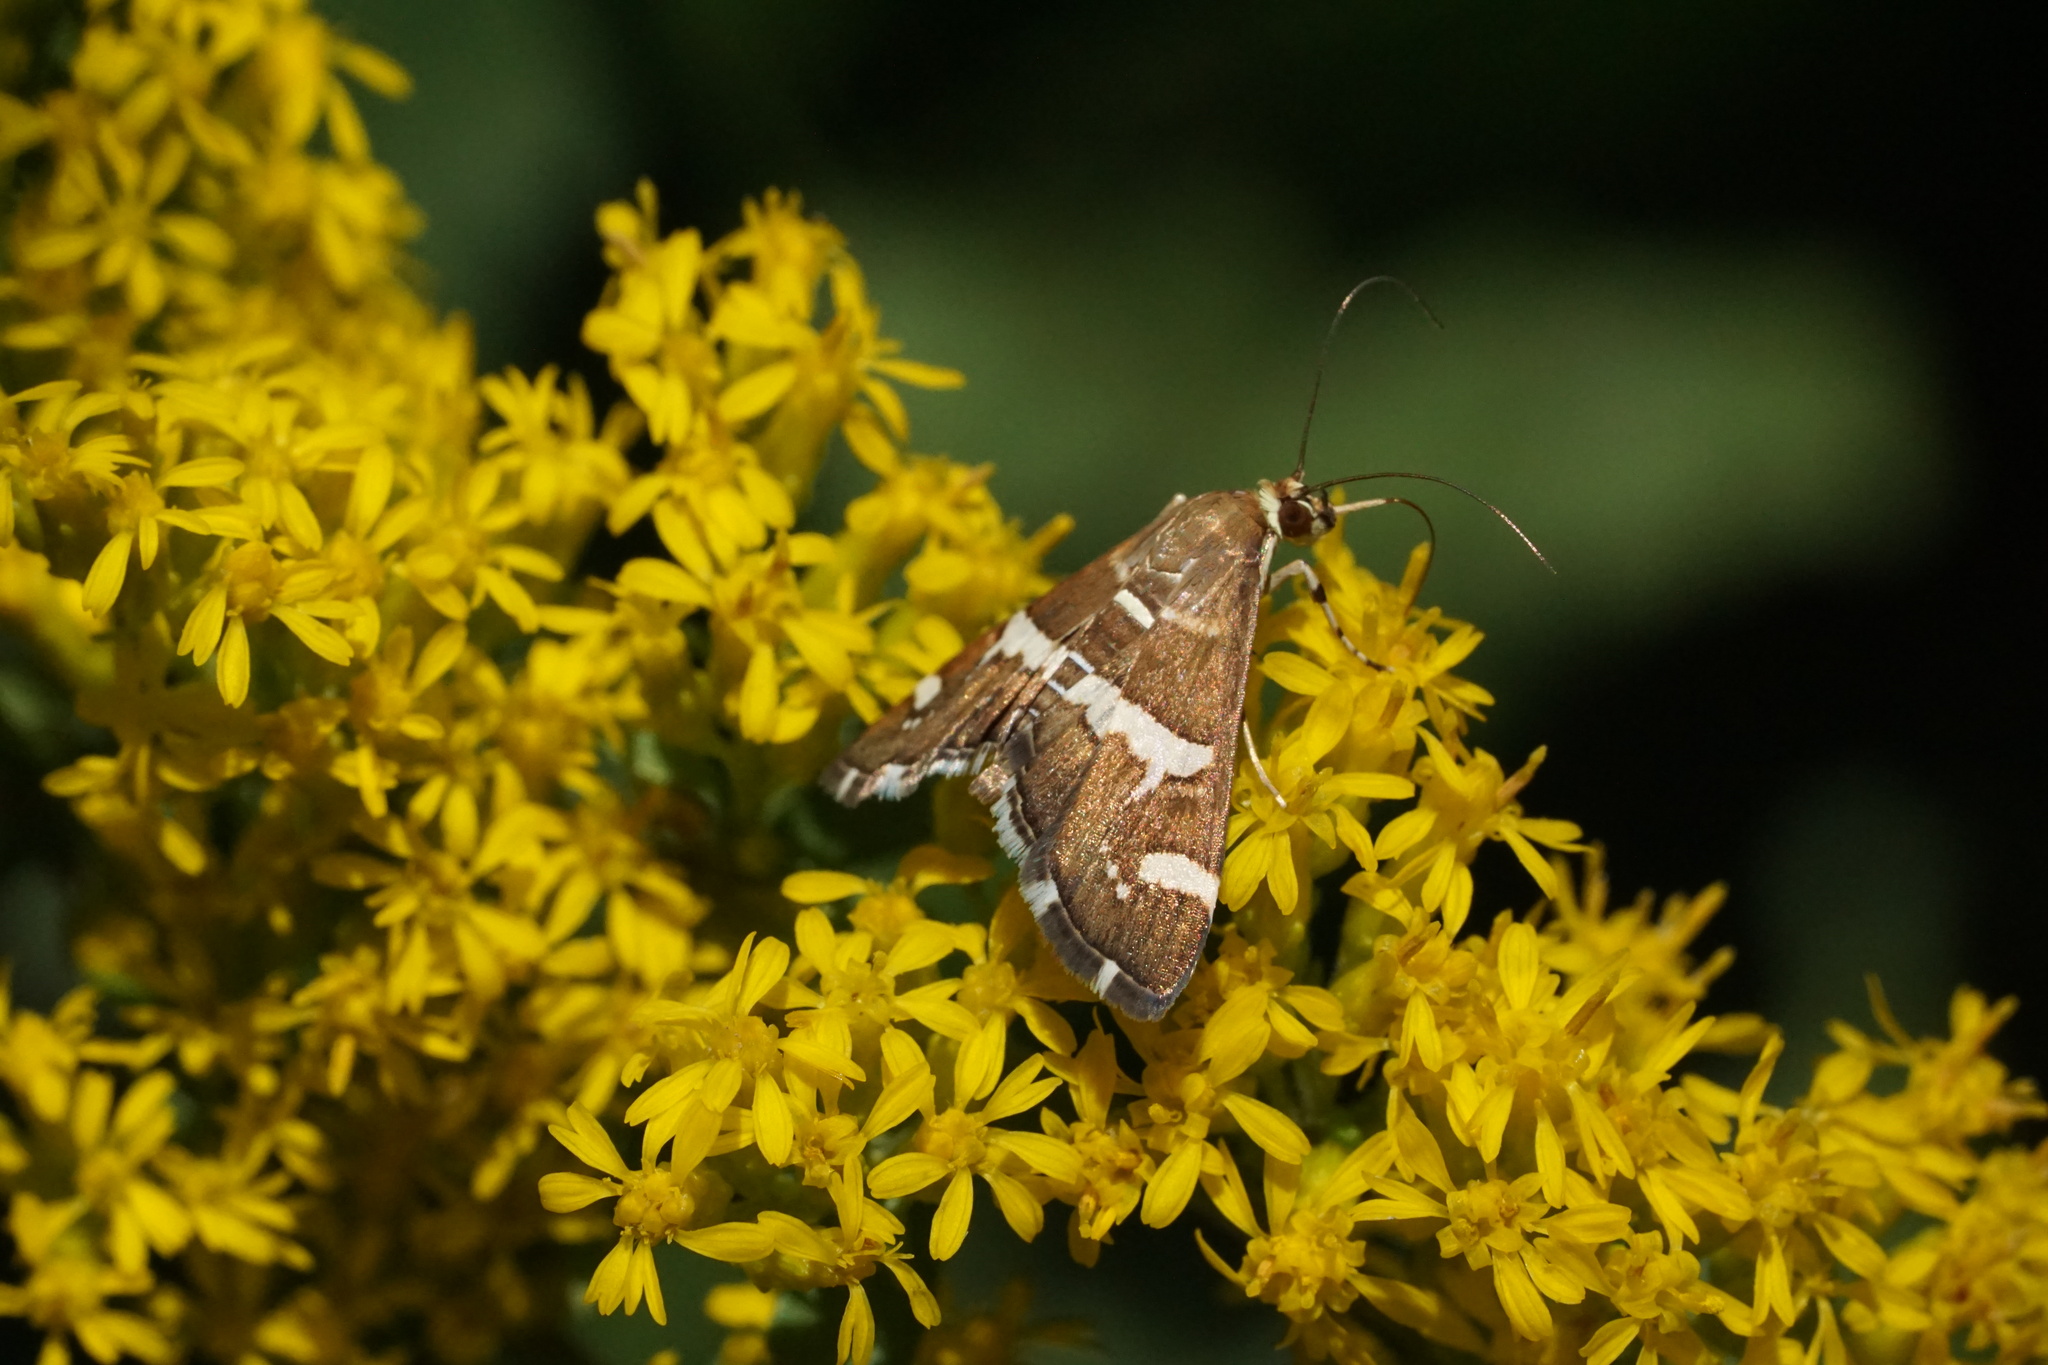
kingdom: Animalia
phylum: Arthropoda
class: Insecta
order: Lepidoptera
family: Crambidae
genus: Spoladea
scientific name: Spoladea recurvalis
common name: Beet webworm moth
